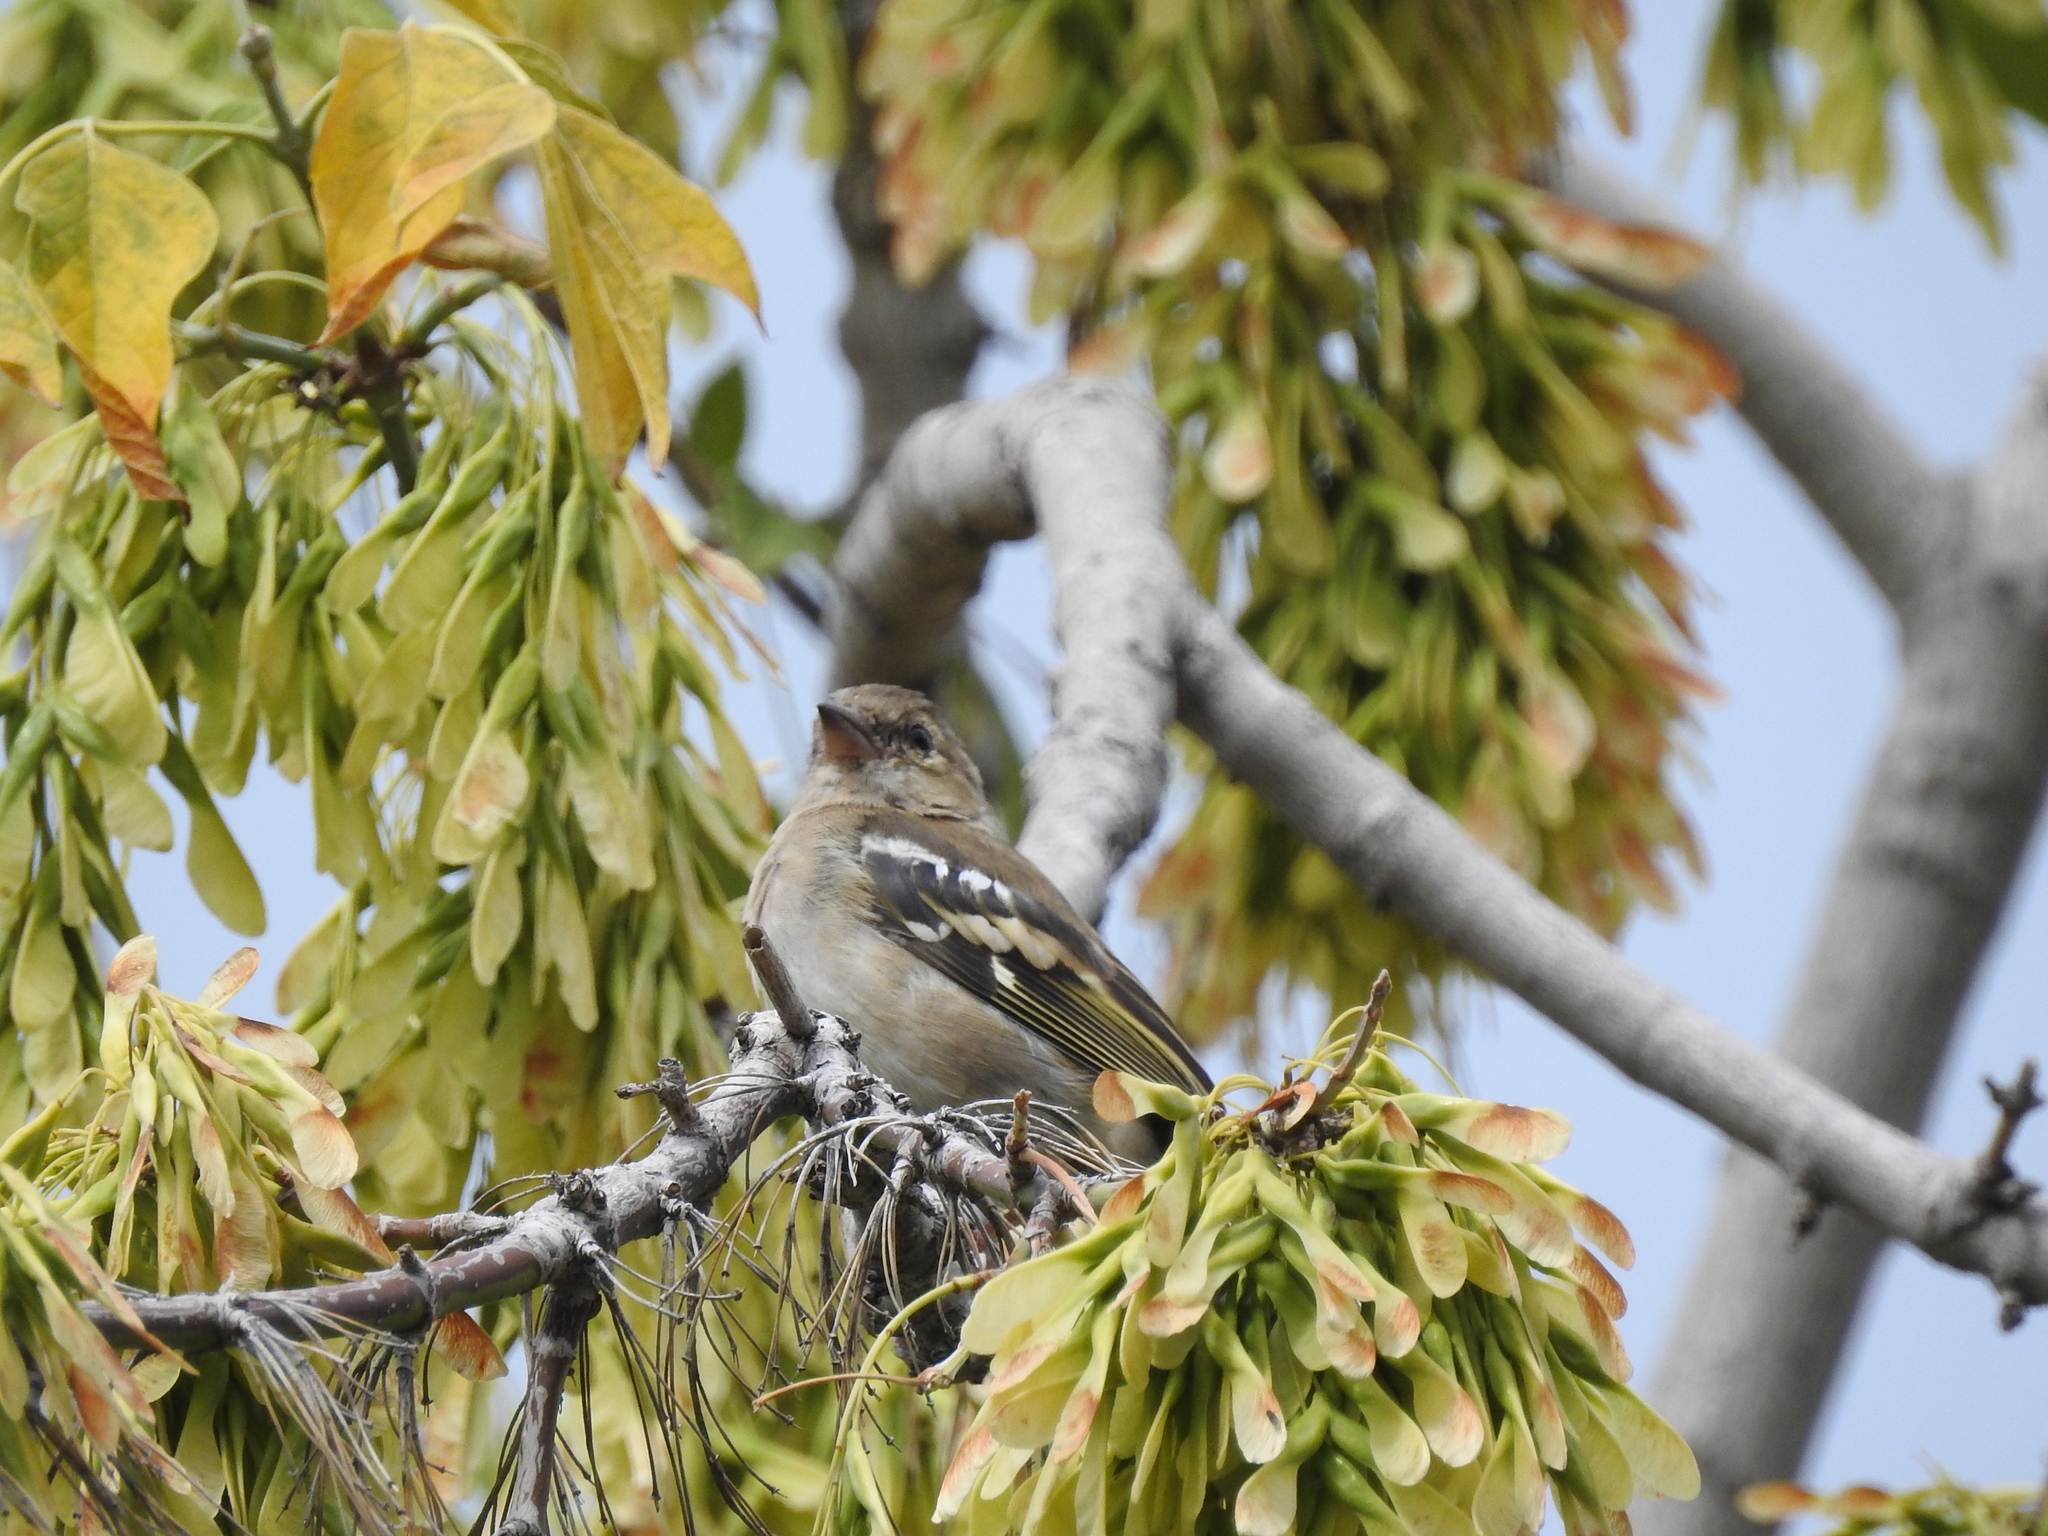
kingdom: Animalia
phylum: Chordata
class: Aves
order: Passeriformes
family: Fringillidae
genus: Fringilla
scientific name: Fringilla coelebs
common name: Common chaffinch
